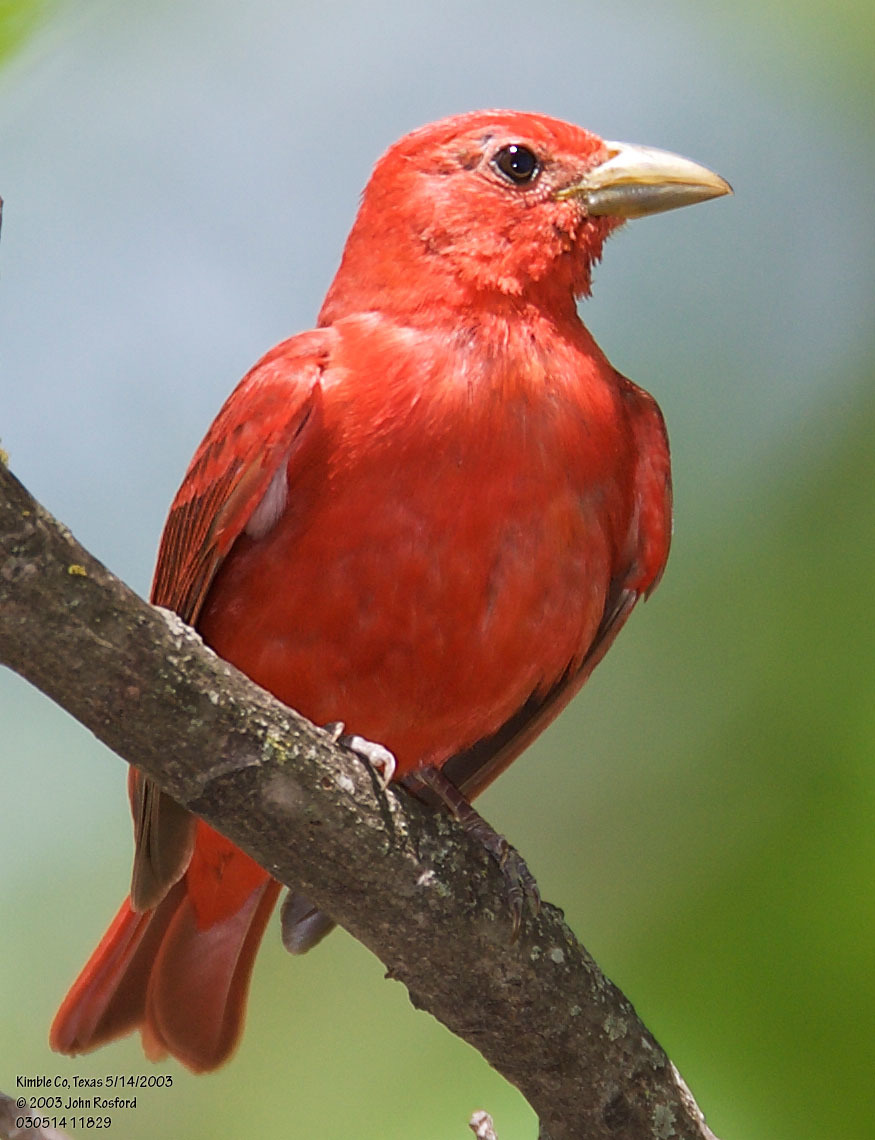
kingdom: Animalia
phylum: Chordata
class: Aves
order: Passeriformes
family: Cardinalidae
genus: Piranga
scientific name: Piranga rubra
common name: Summer tanager
